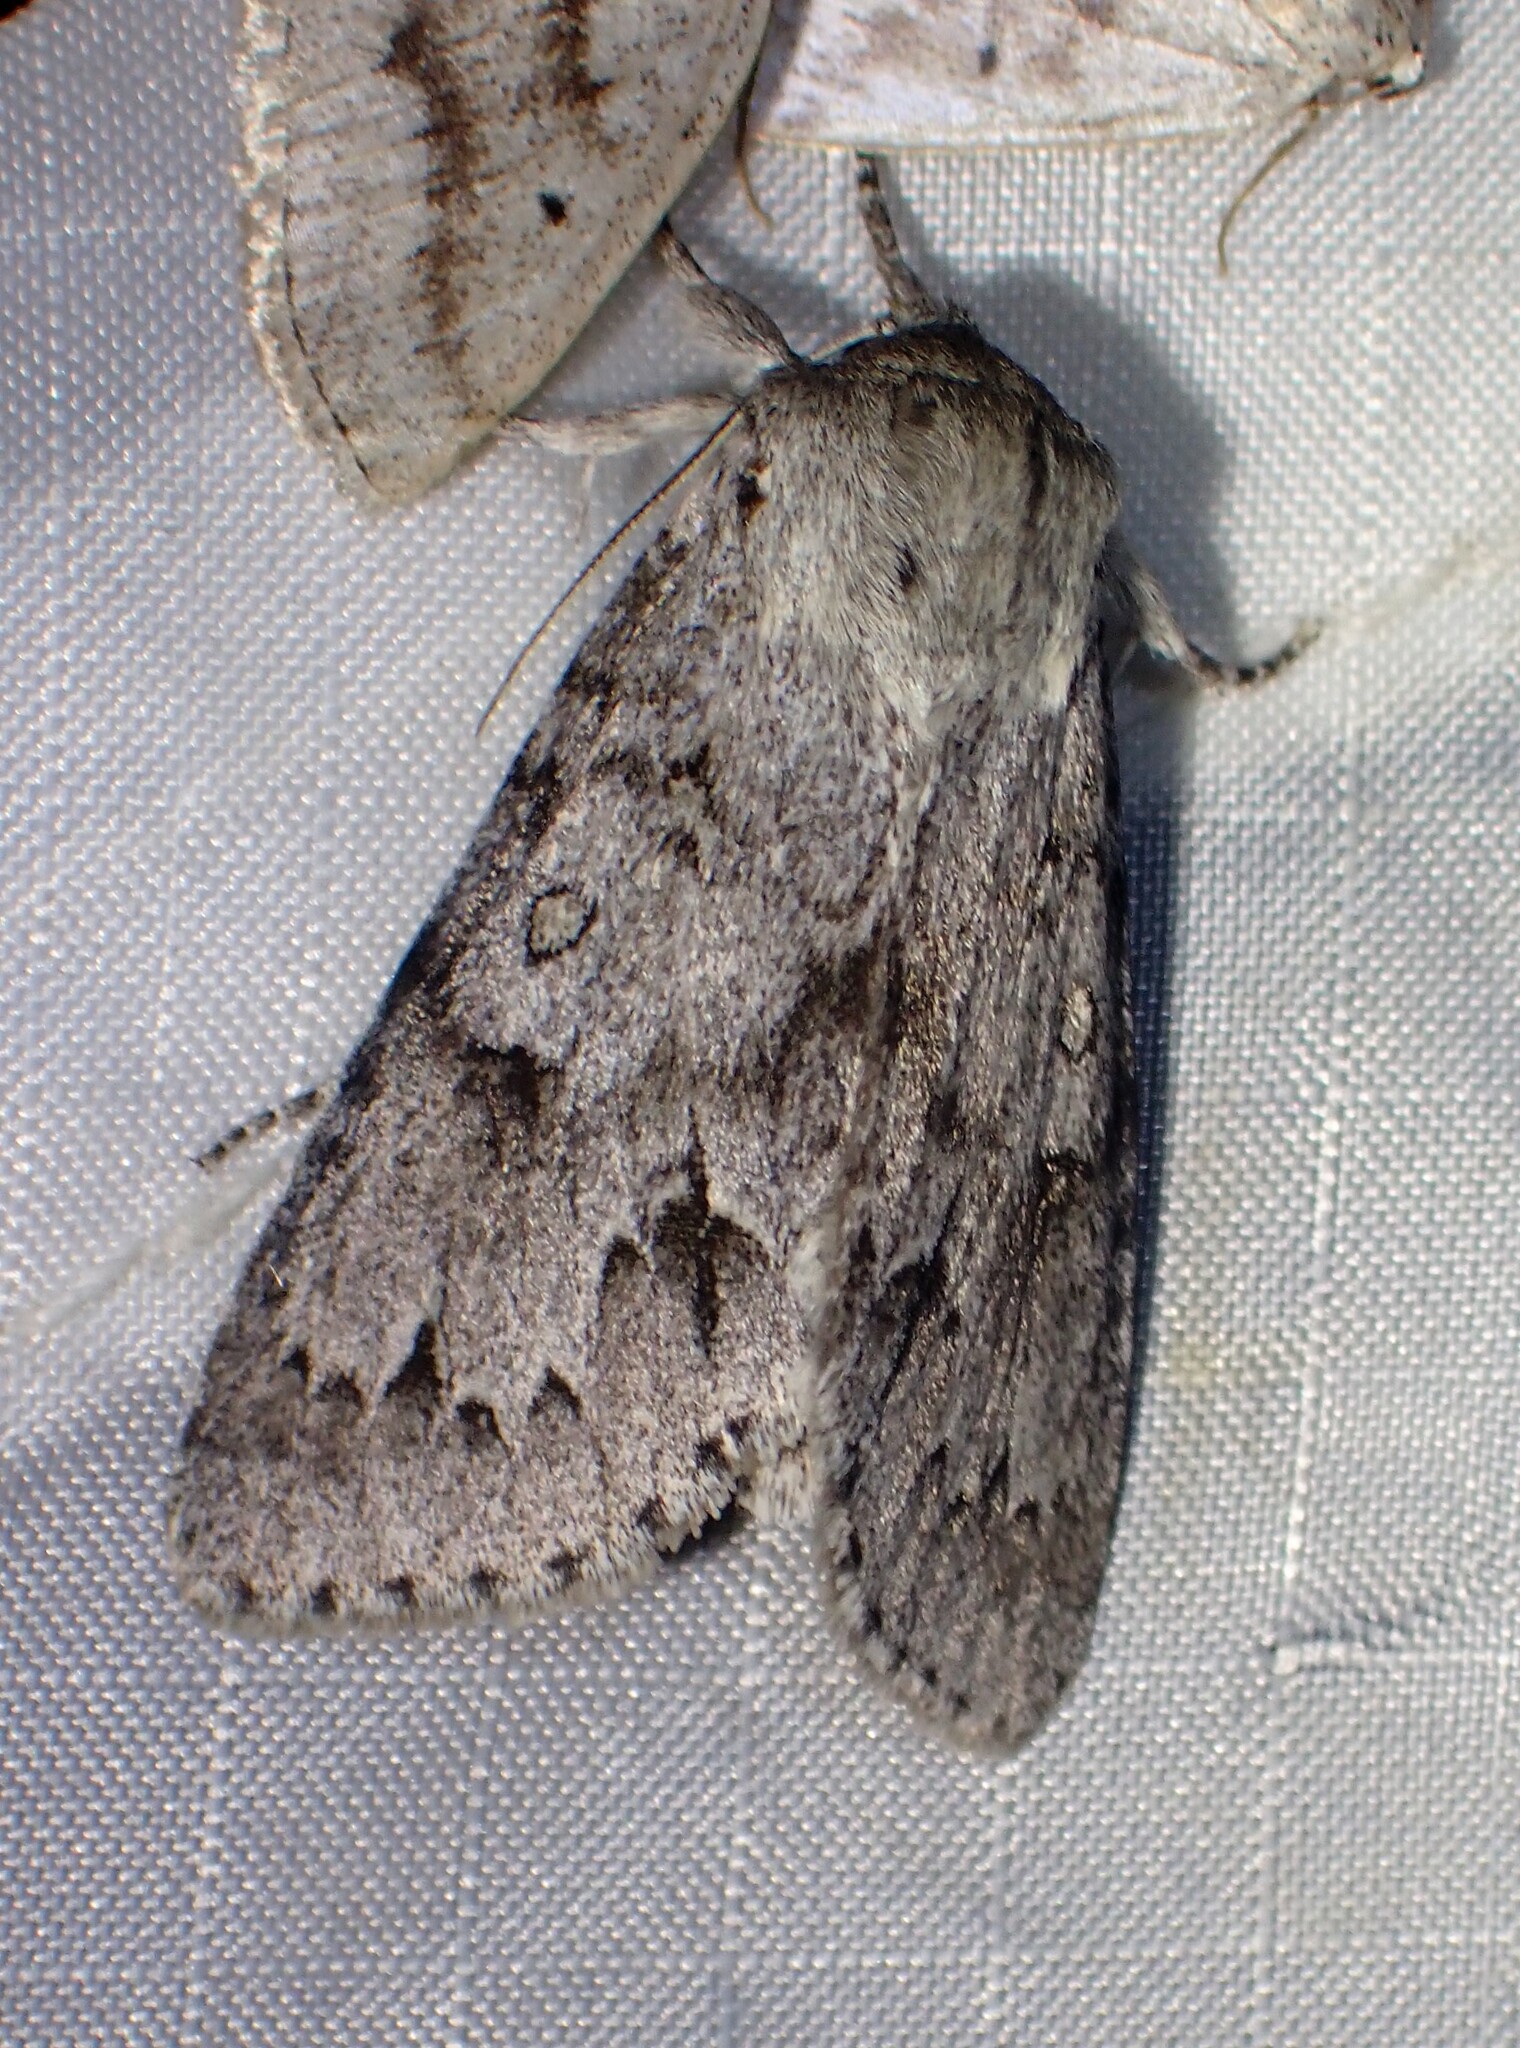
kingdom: Animalia
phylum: Arthropoda
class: Insecta
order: Lepidoptera
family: Noctuidae
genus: Acronicta
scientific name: Acronicta insita
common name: Large gray dagger
